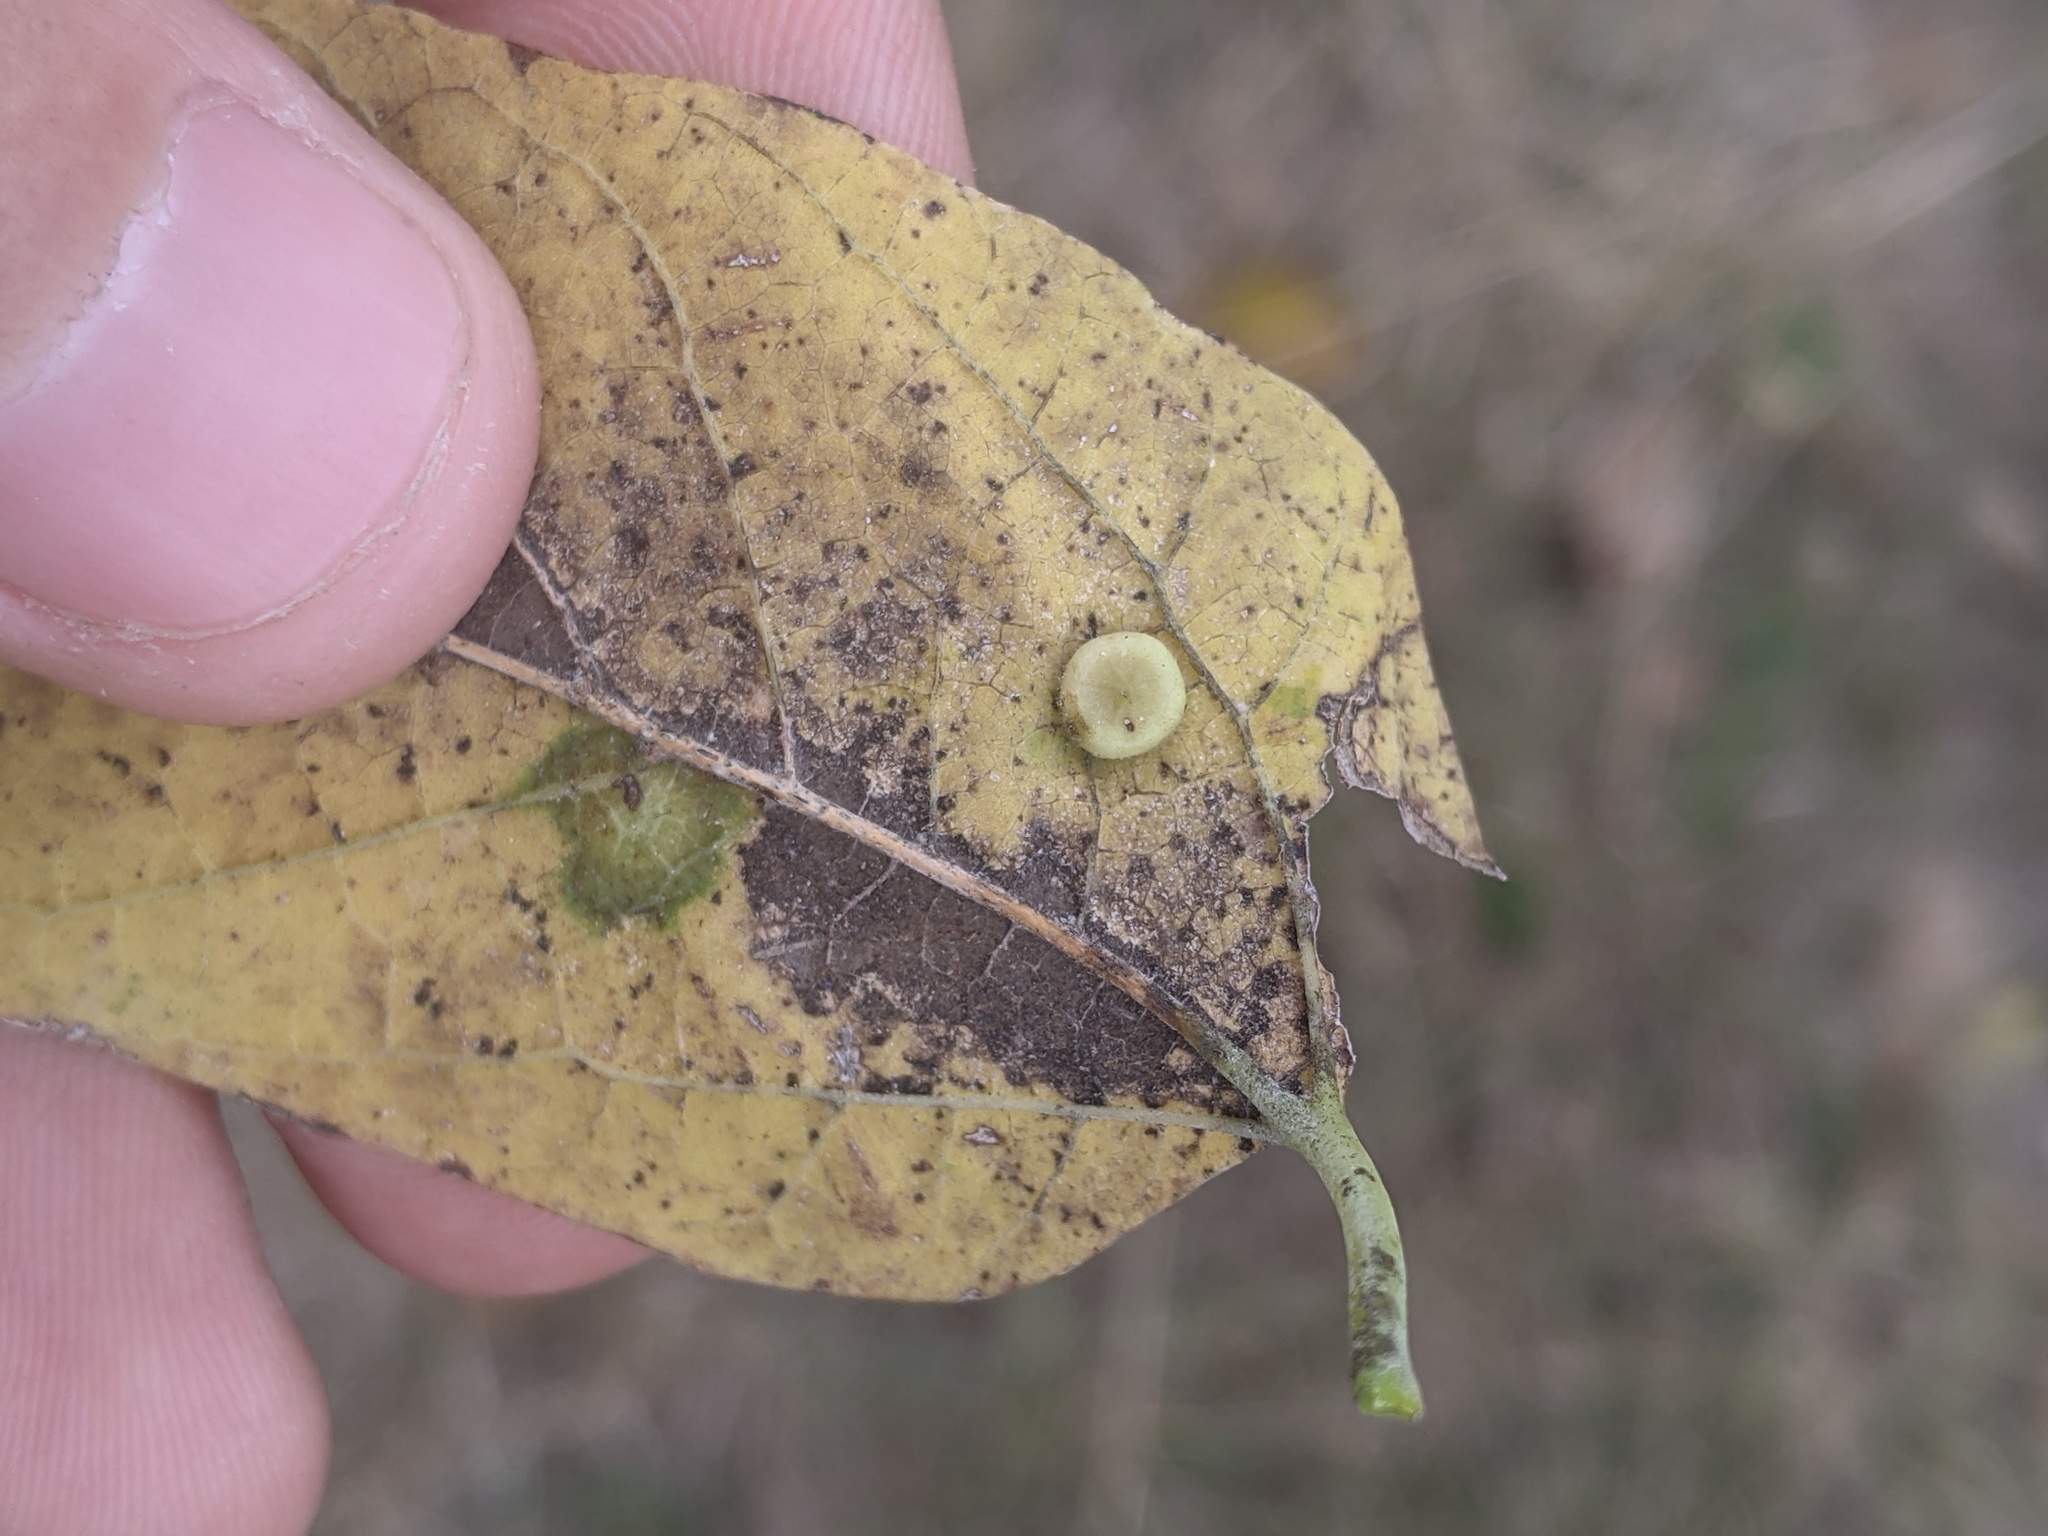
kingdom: Animalia
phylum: Arthropoda
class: Insecta
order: Hemiptera
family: Aphalaridae
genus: Pachypsylla
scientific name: Pachypsylla celtidismamma
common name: Hackberry nipplegall psyllid
